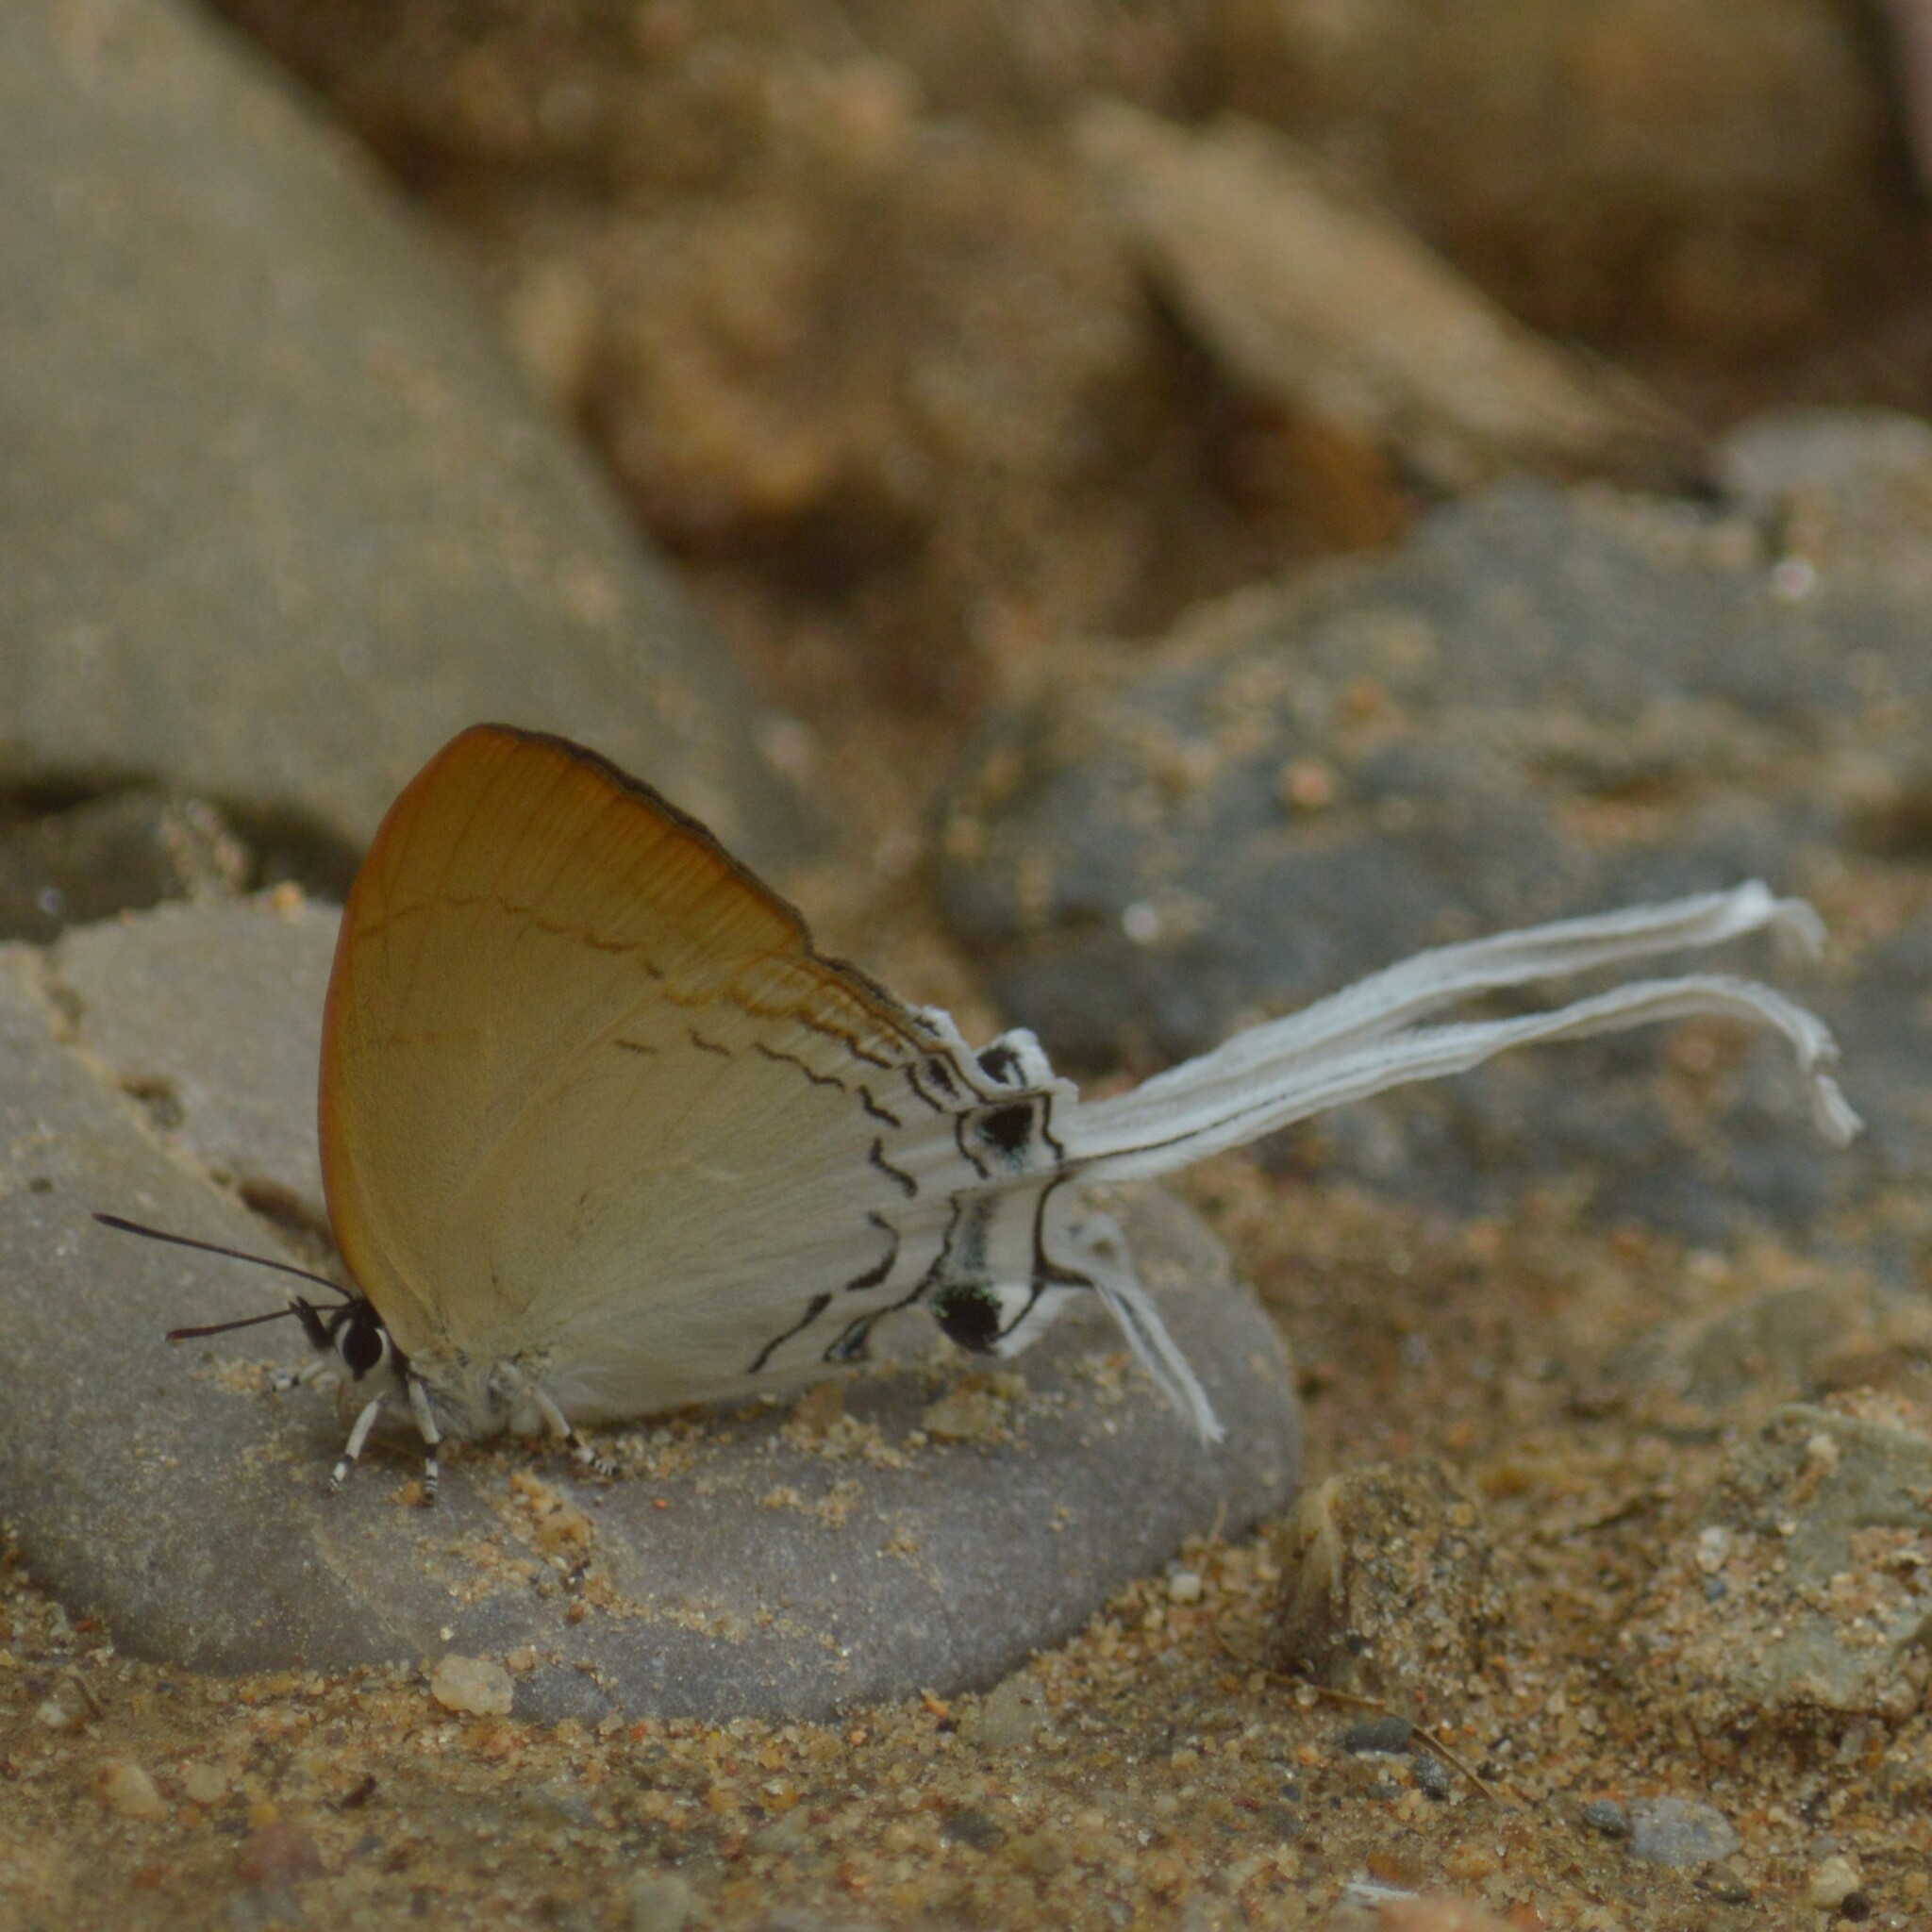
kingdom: Animalia
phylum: Arthropoda
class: Insecta
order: Lepidoptera
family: Lycaenidae
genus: Cheritra
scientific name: Cheritra freja
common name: Common imperial
